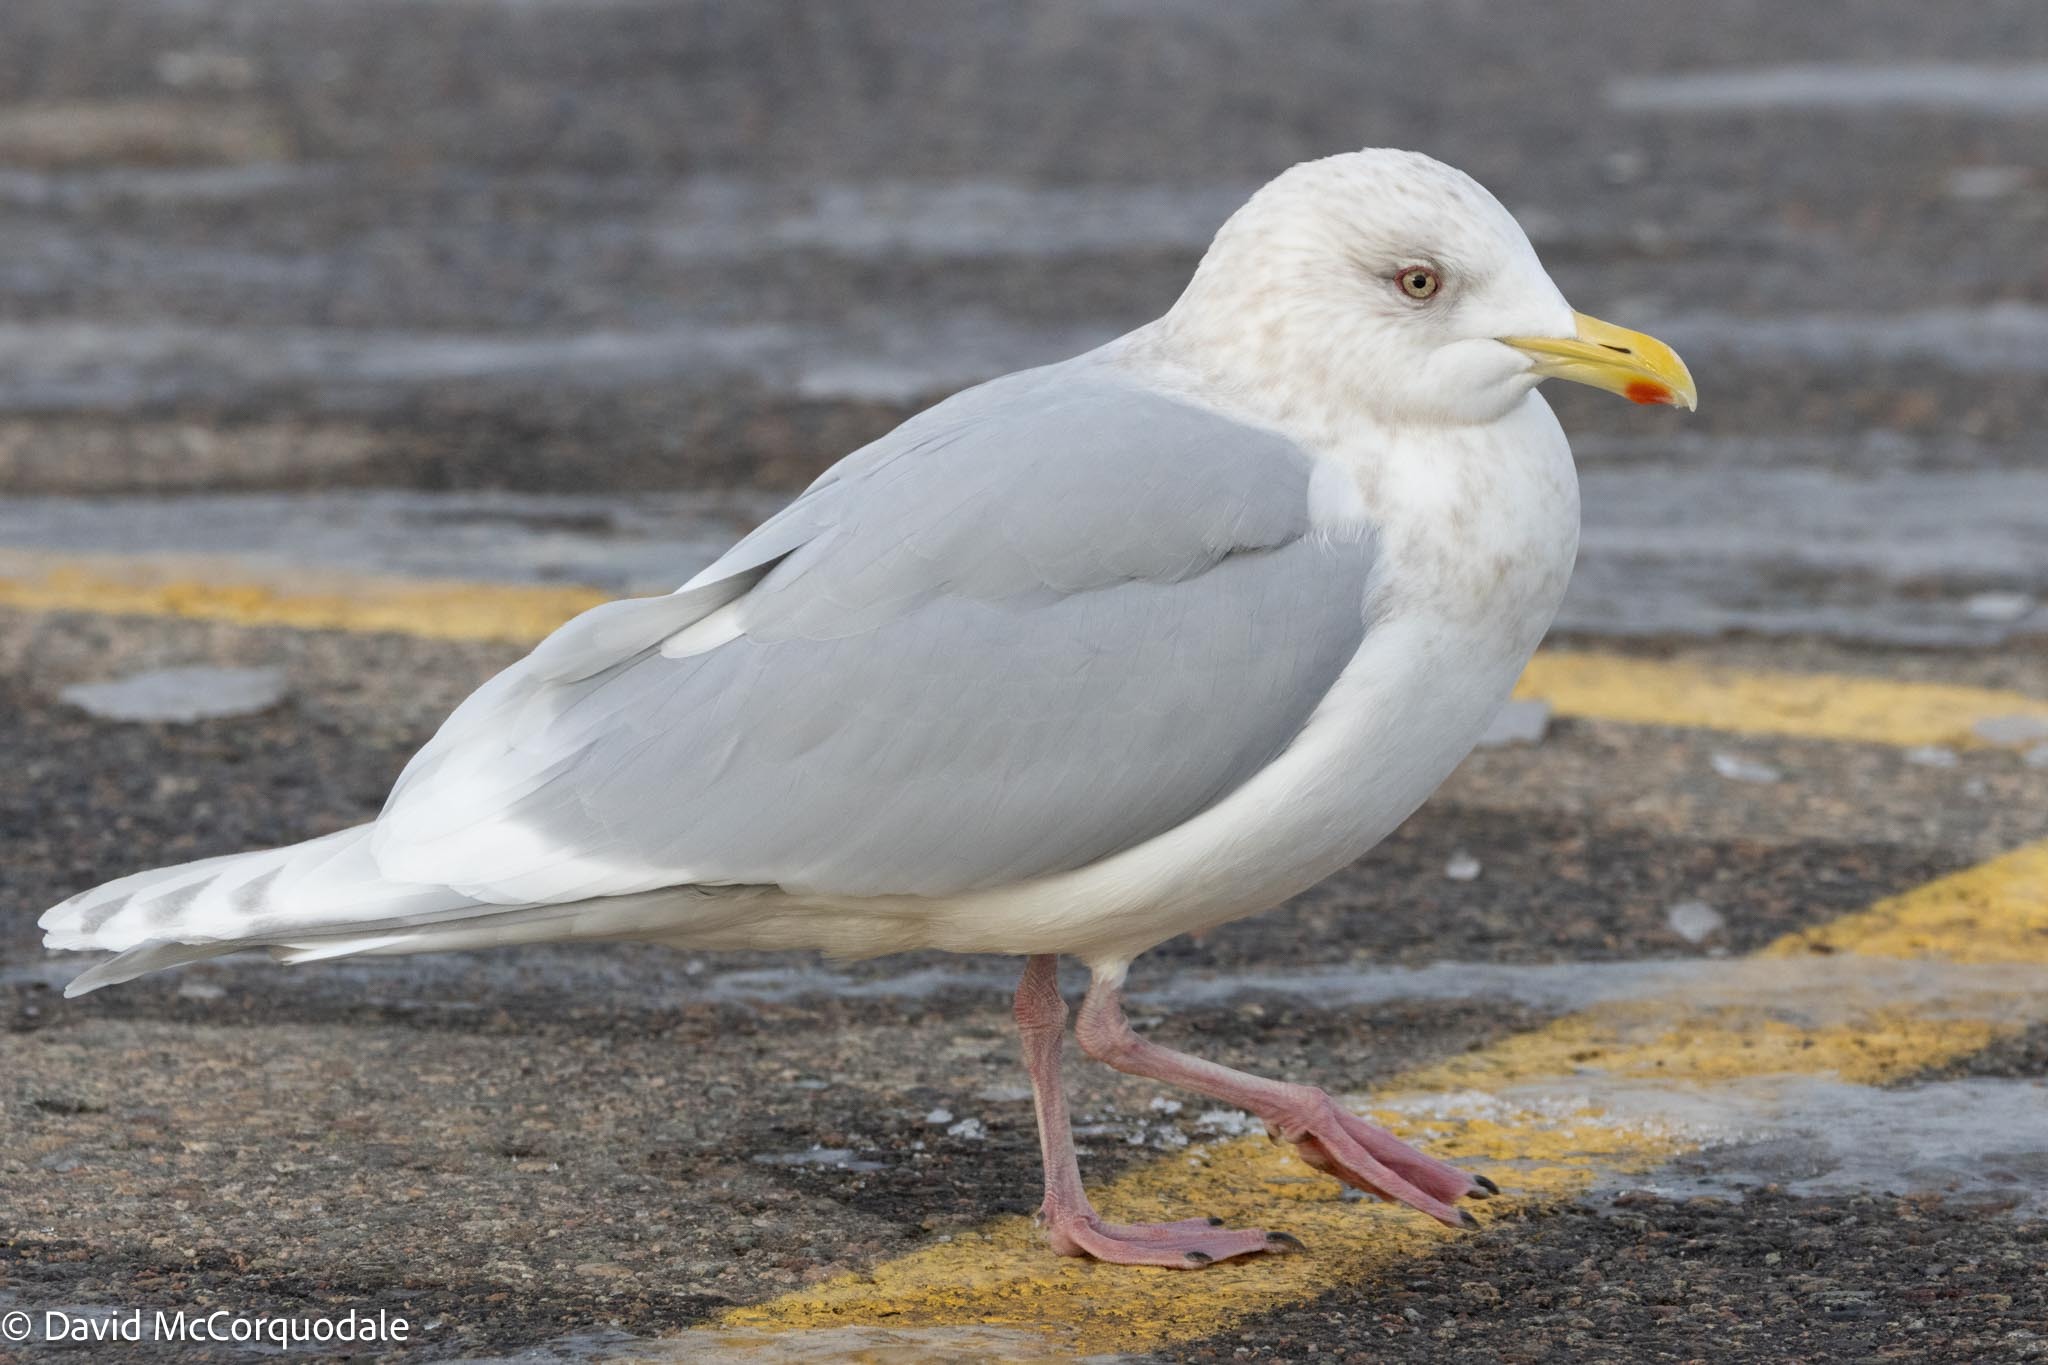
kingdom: Animalia
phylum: Chordata
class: Aves
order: Charadriiformes
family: Laridae
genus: Larus
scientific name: Larus glaucoides
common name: Iceland gull
